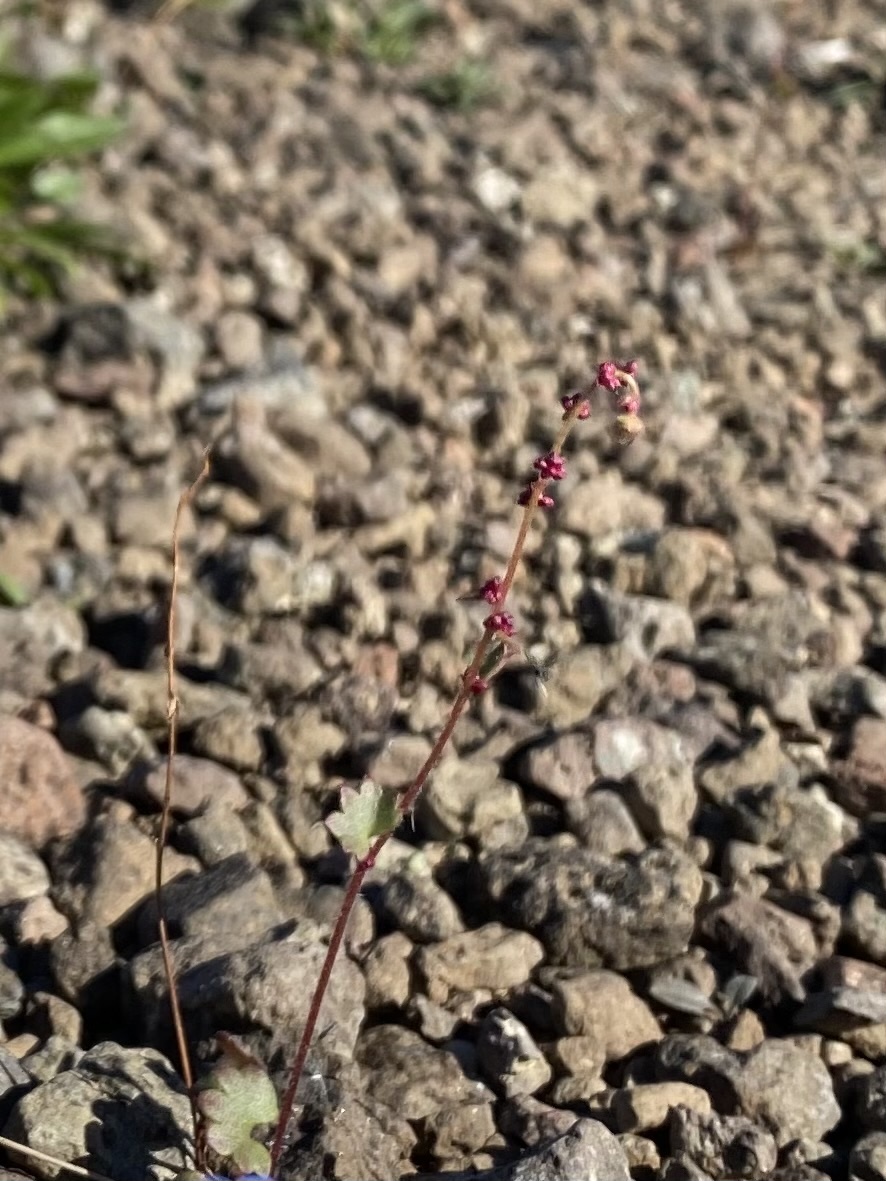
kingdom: Plantae
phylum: Tracheophyta
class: Magnoliopsida
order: Saxifragales
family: Saxifragaceae
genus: Saxifraga
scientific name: Saxifraga cernua
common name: Drooping saxifrage
